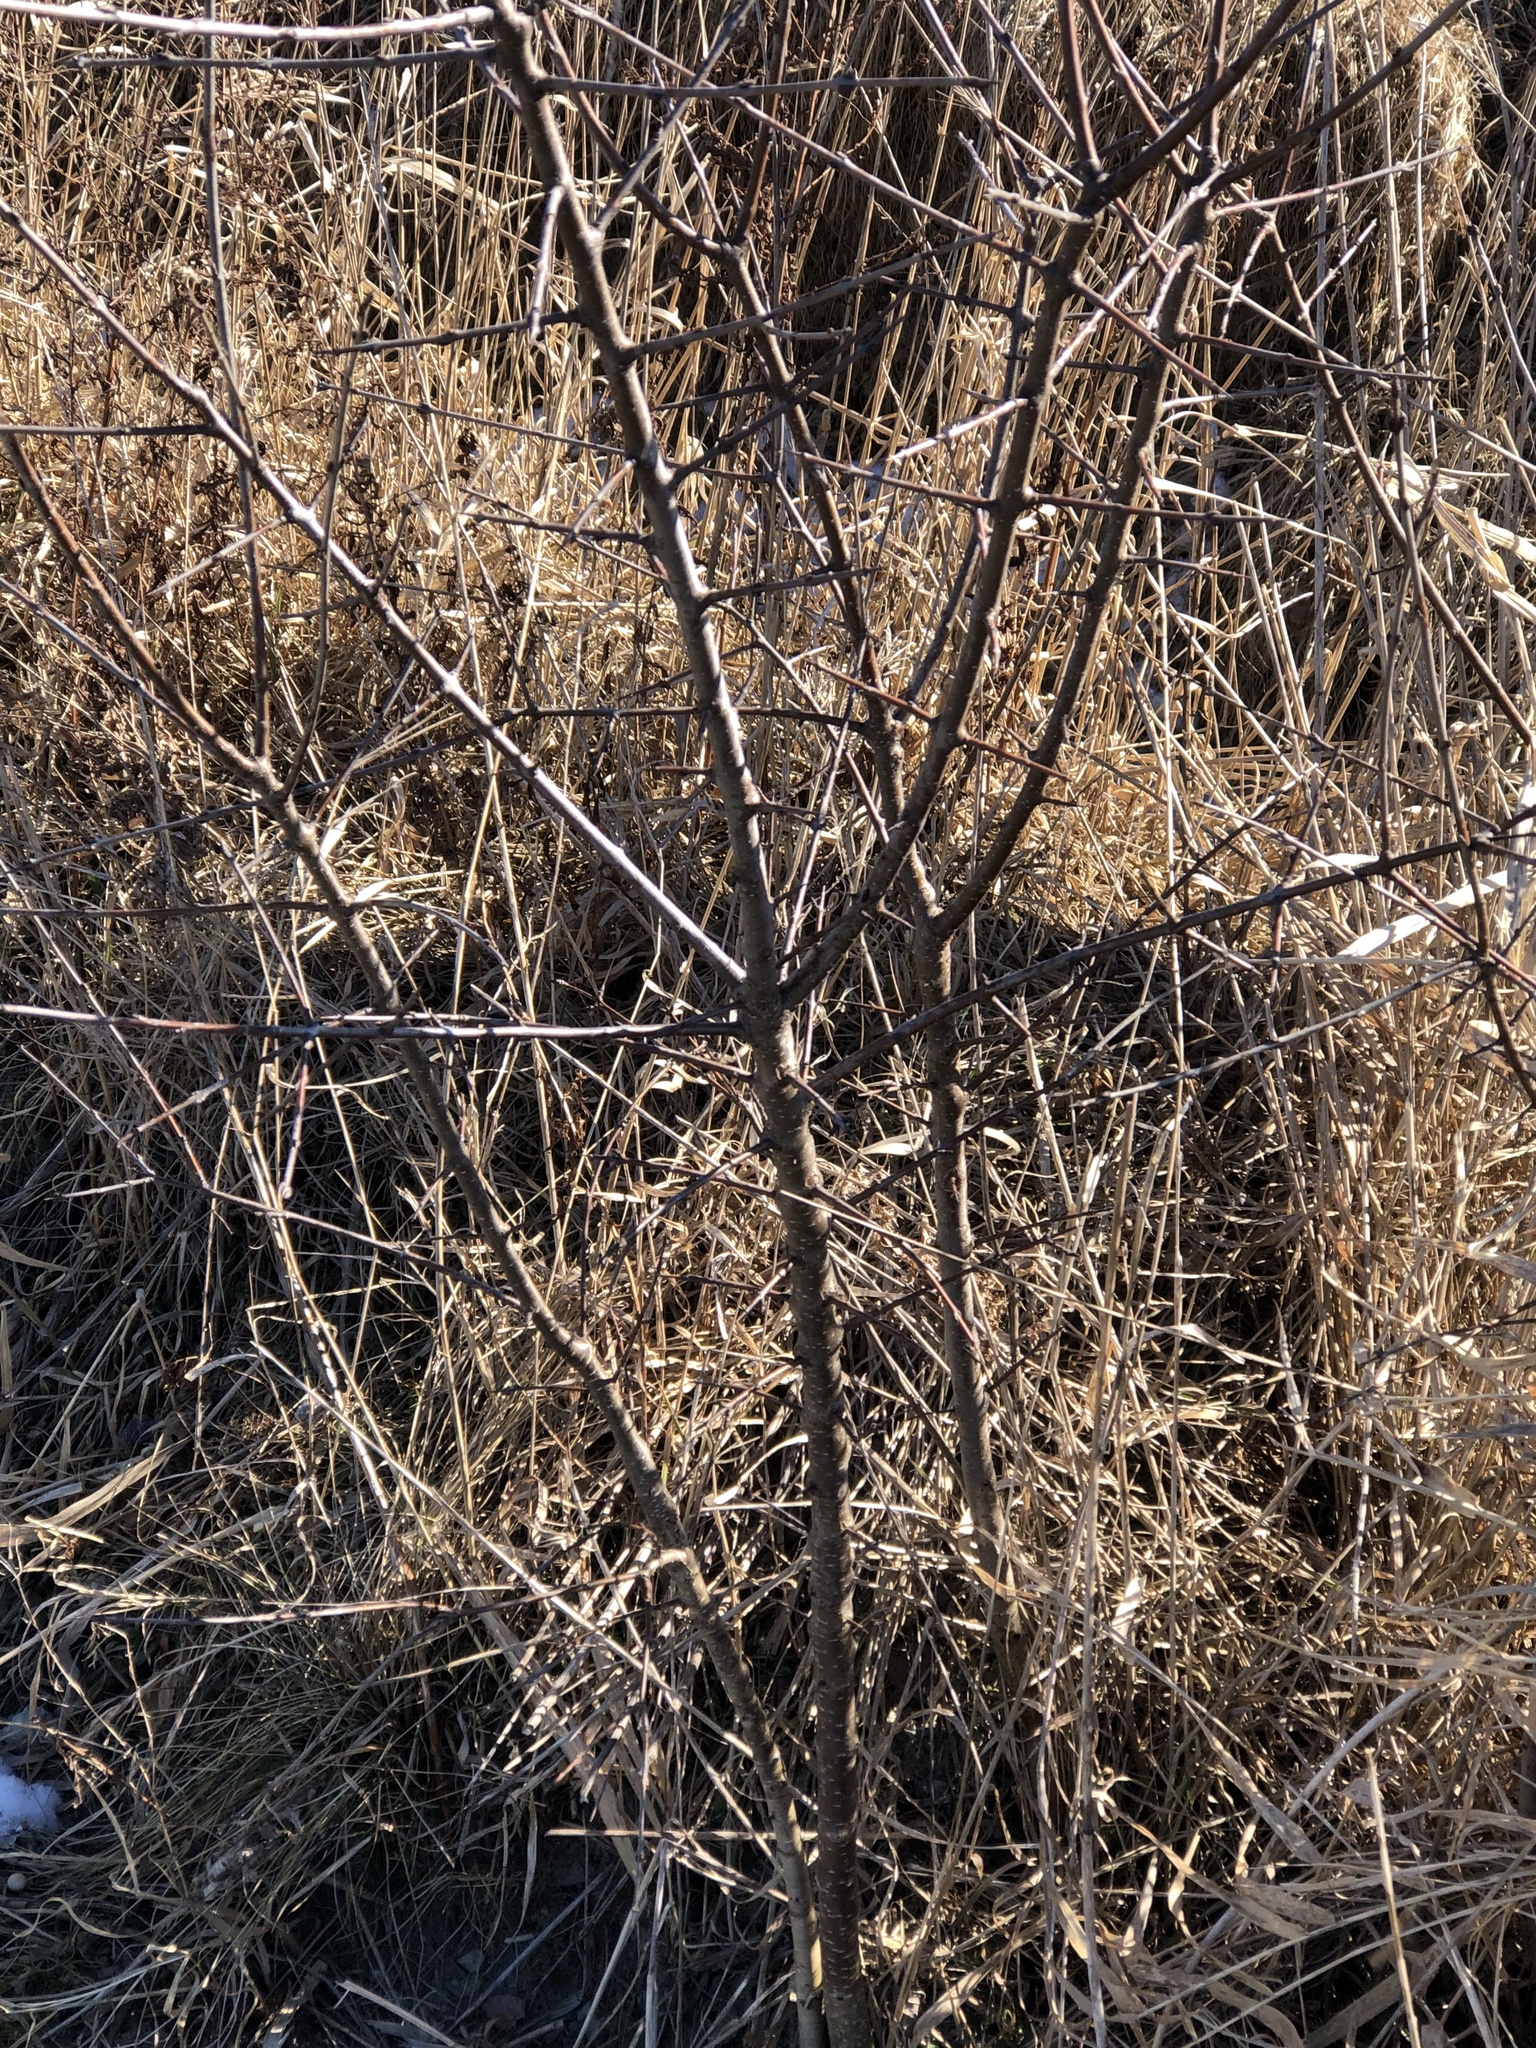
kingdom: Plantae
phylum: Tracheophyta
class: Magnoliopsida
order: Rosales
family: Rhamnaceae
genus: Rhamnus
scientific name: Rhamnus cathartica
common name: Common buckthorn
